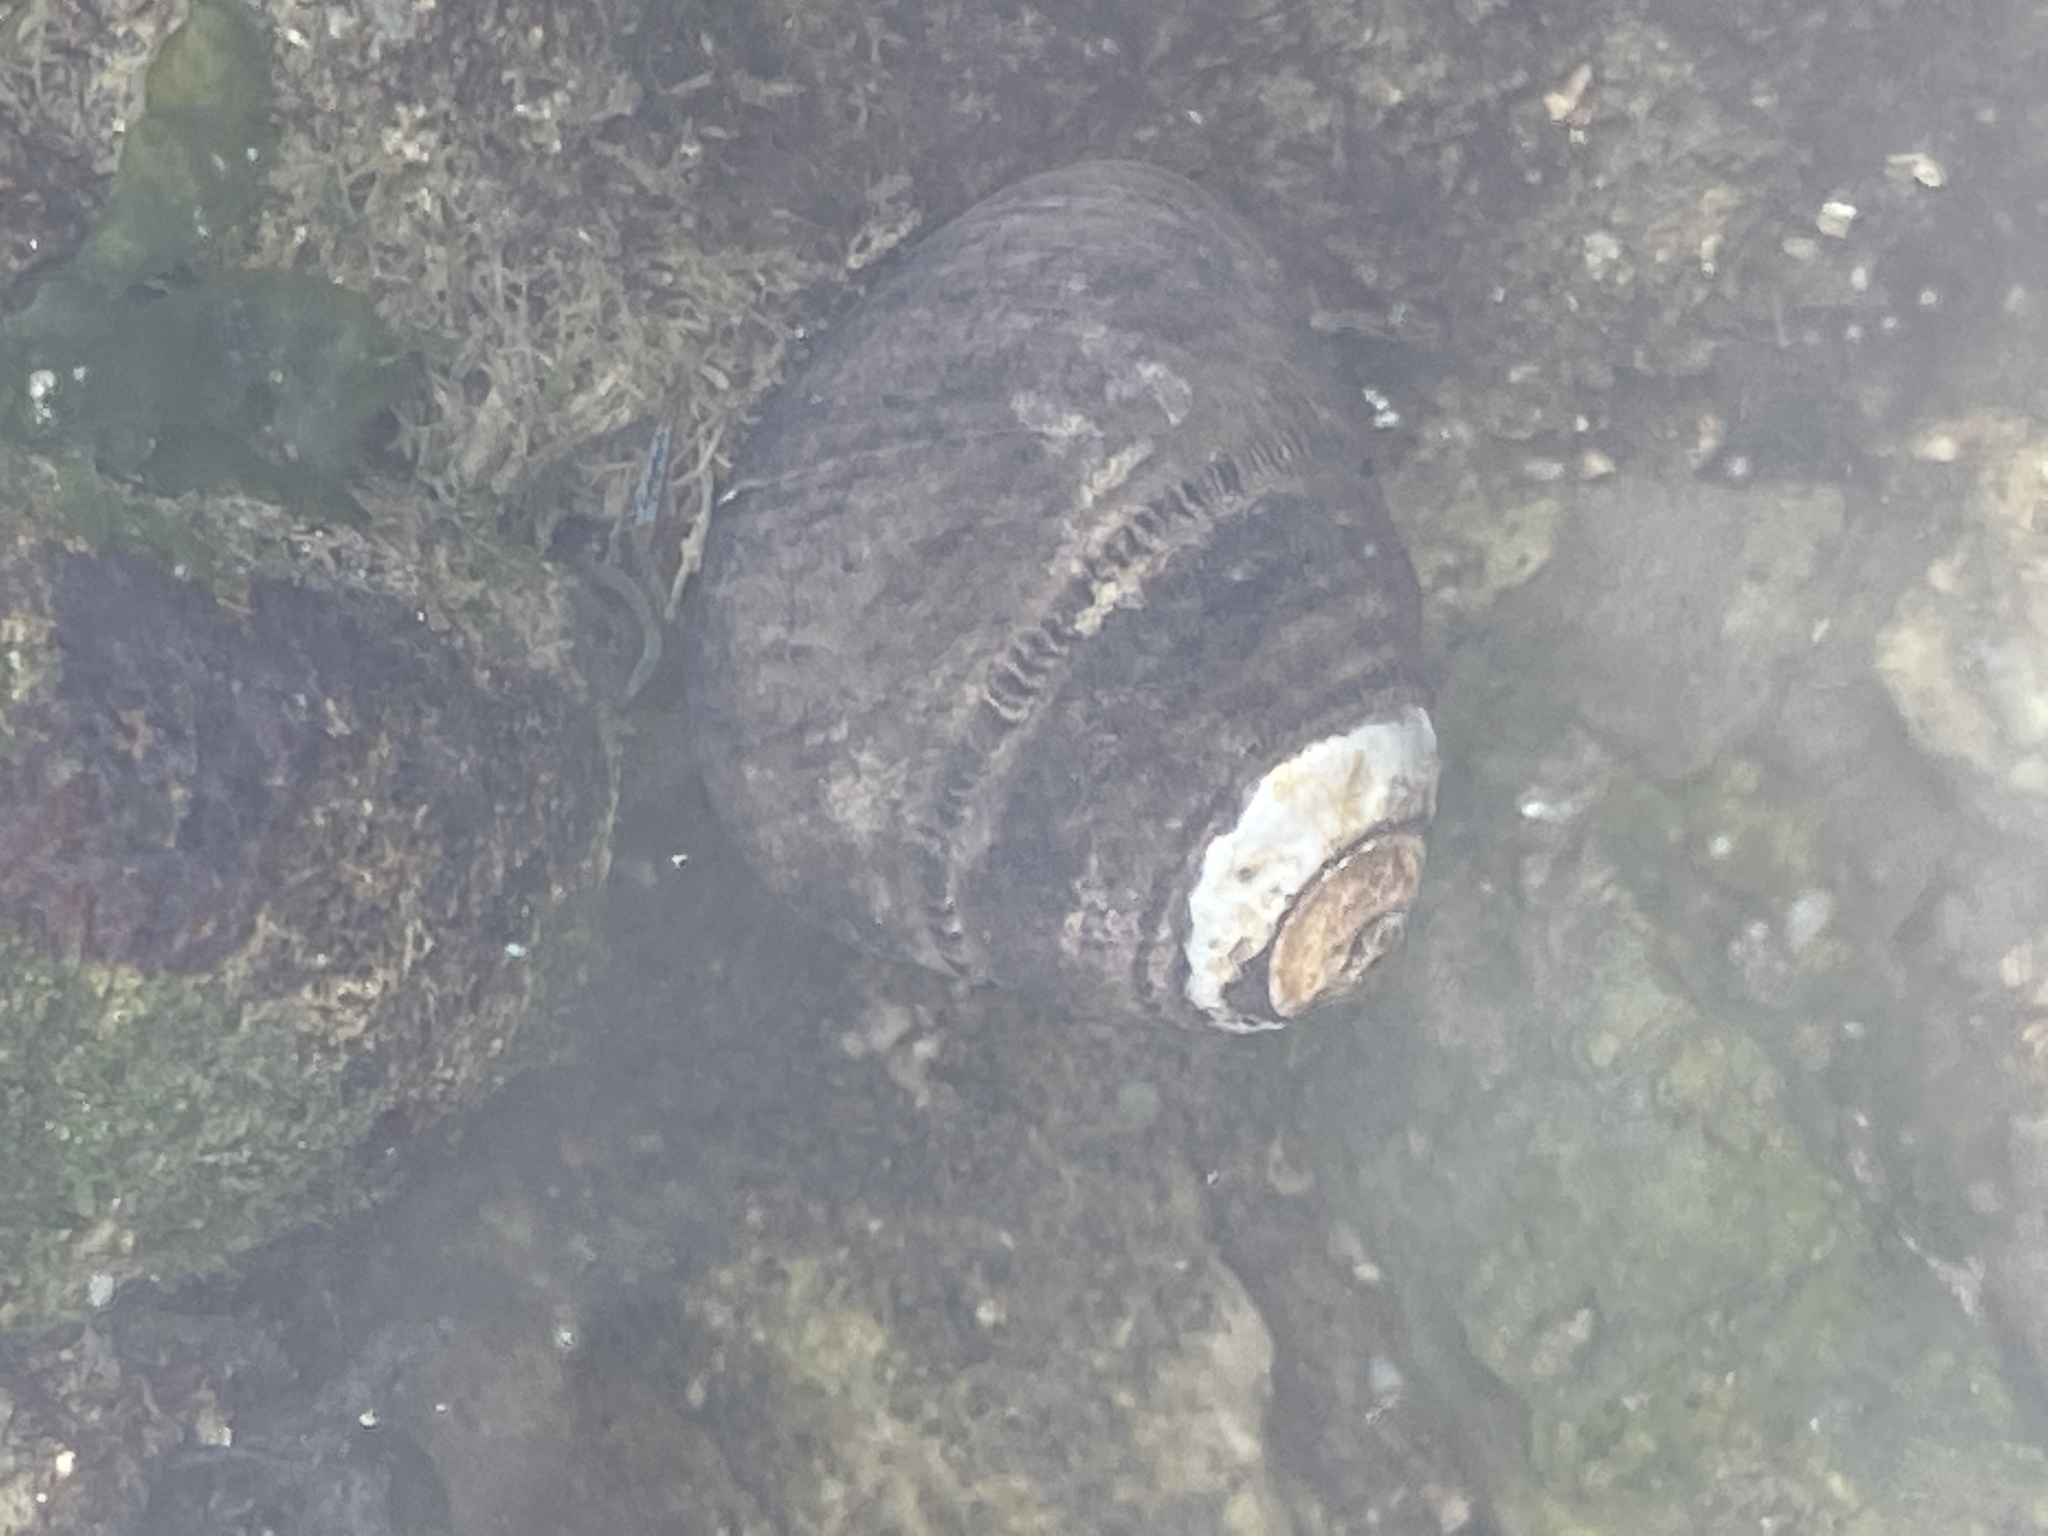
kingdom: Animalia
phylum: Mollusca
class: Gastropoda
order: Trochida
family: Tegulidae
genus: Tegula
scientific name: Tegula funebralis
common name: Black tegula
